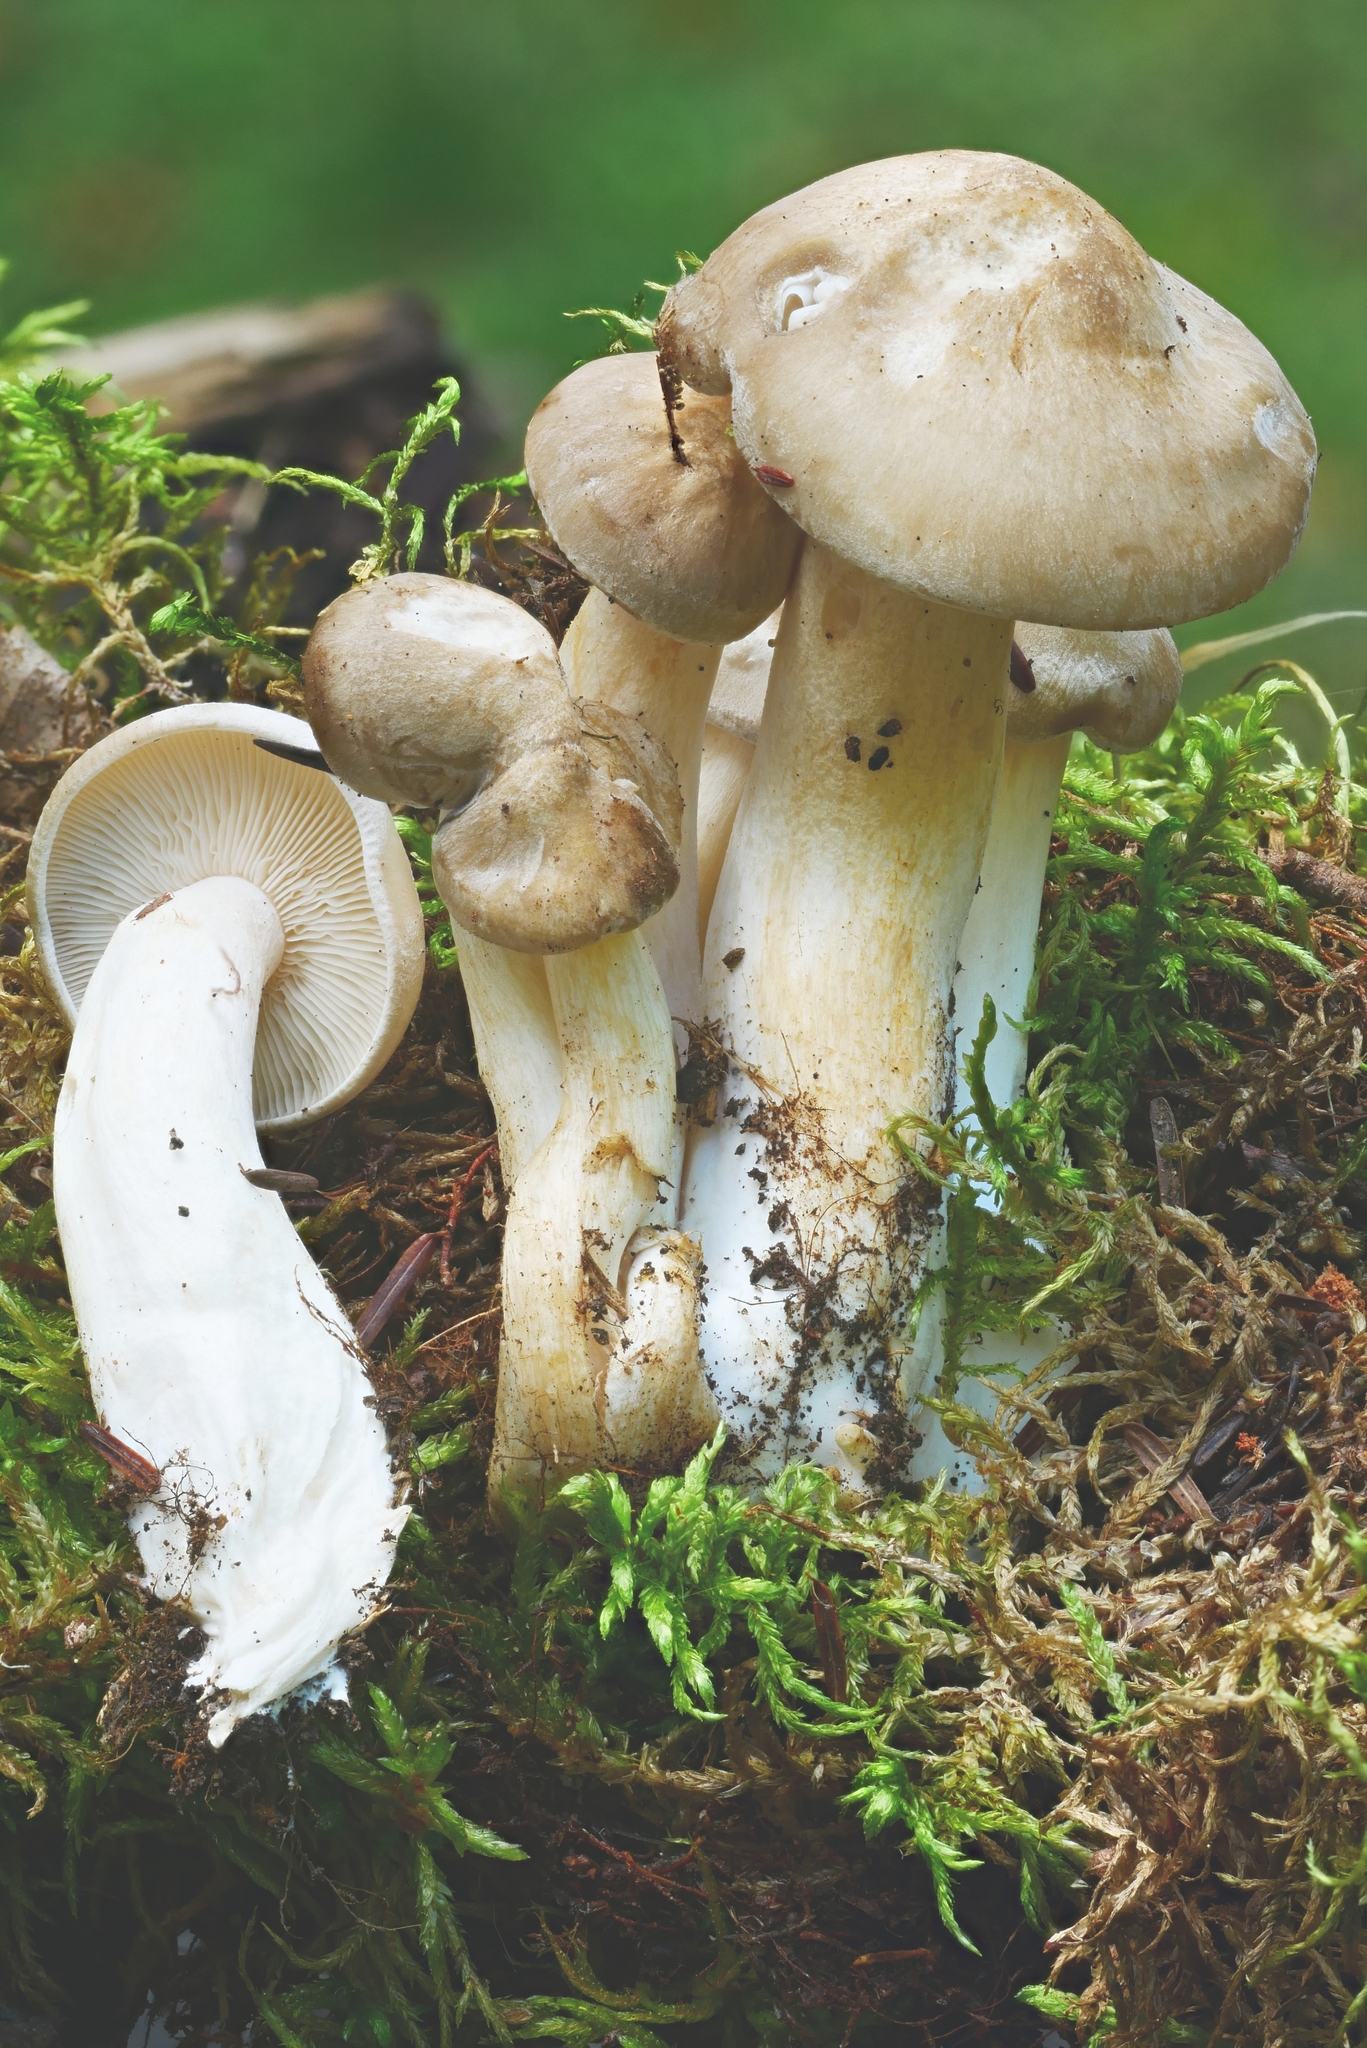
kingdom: Fungi
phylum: Basidiomycota
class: Agaricomycetes
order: Agaricales
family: Lyophyllaceae
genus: Lyophyllum
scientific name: Lyophyllum decastes
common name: Clustered domecap
